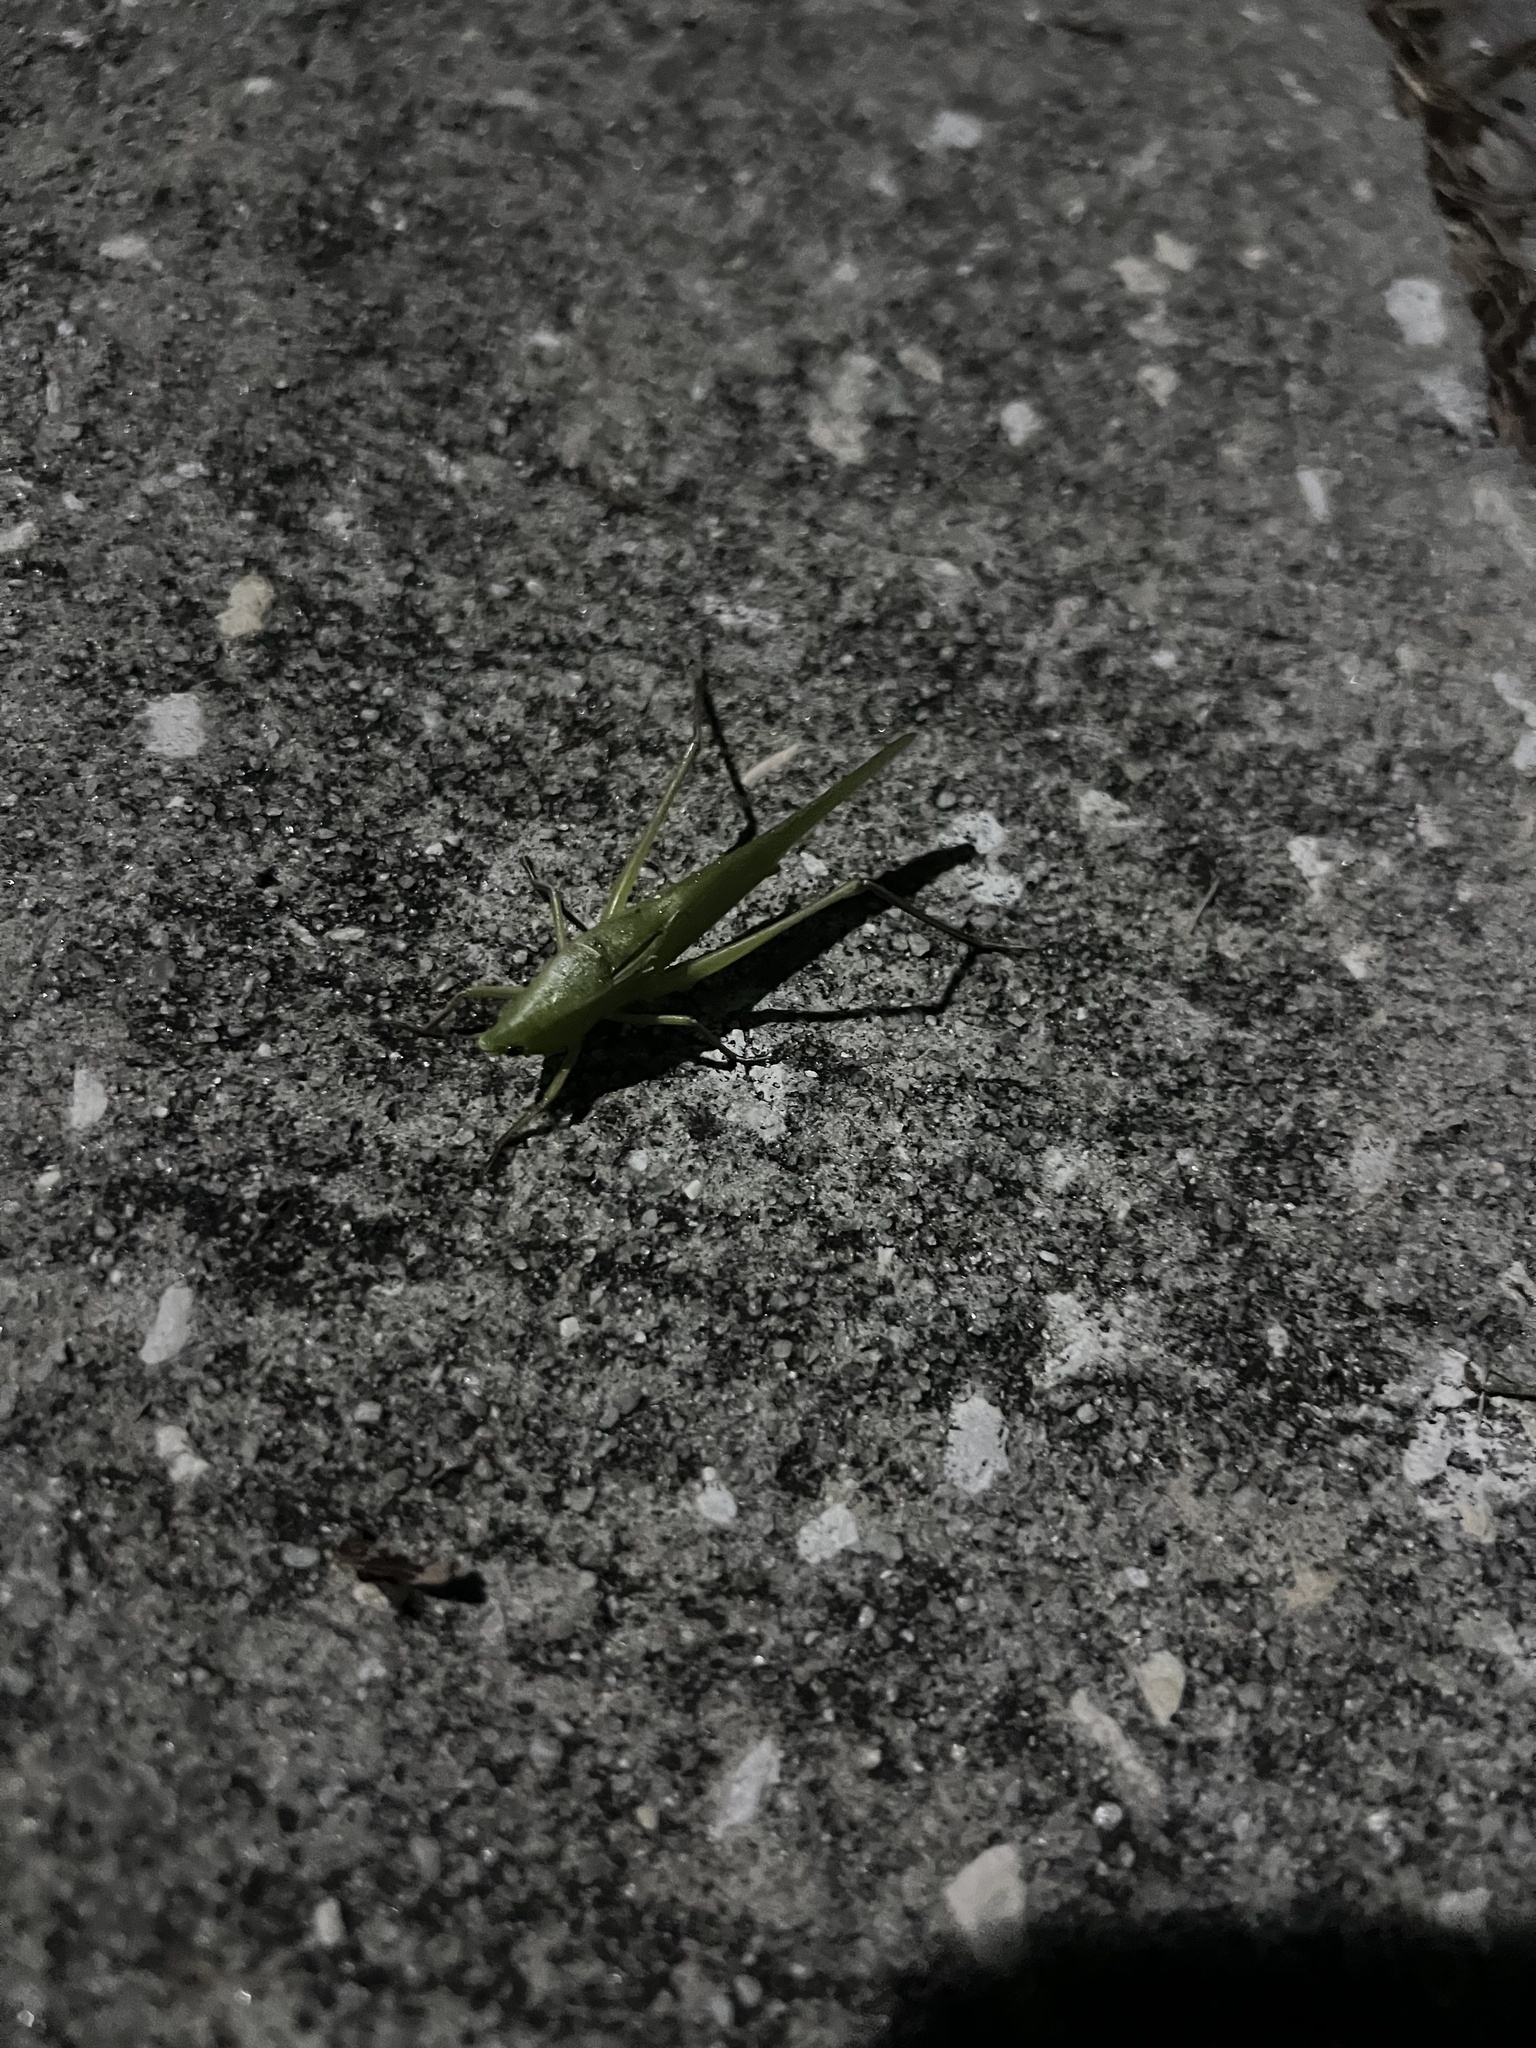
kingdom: Animalia
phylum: Arthropoda
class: Insecta
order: Orthoptera
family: Tettigoniidae
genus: Neoconocephalus
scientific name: Neoconocephalus triops
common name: Broad-tipped conehead
